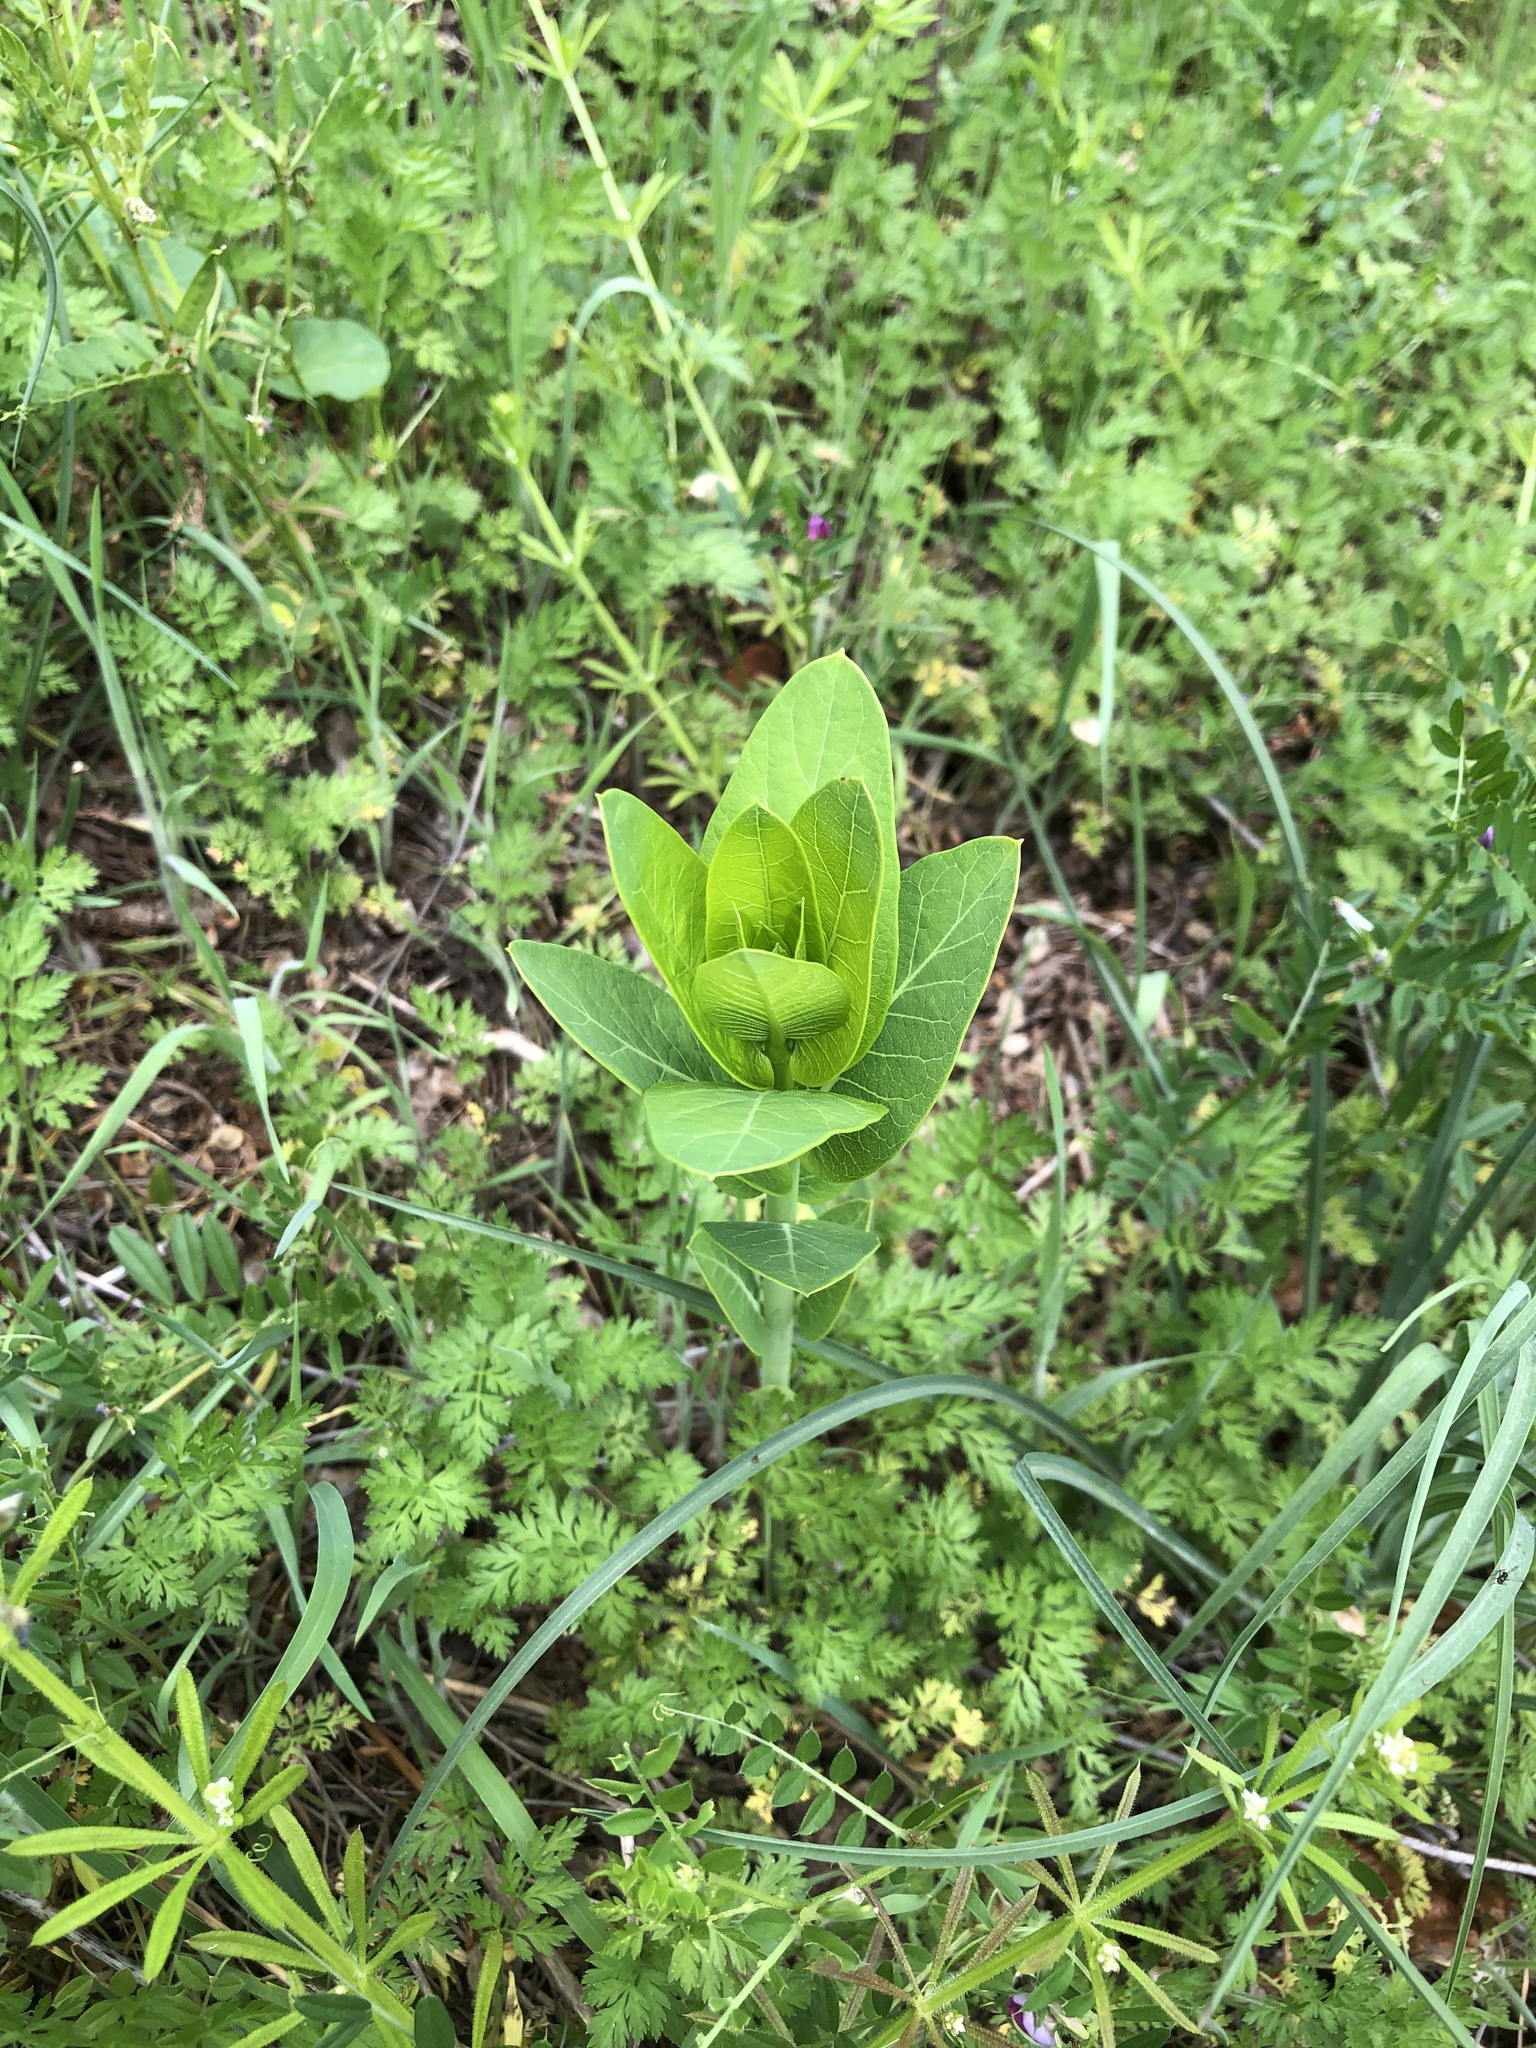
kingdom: Plantae
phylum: Tracheophyta
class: Magnoliopsida
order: Gentianales
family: Apocynaceae
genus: Apocynum
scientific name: Apocynum cannabinum
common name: Hemp dogbane
